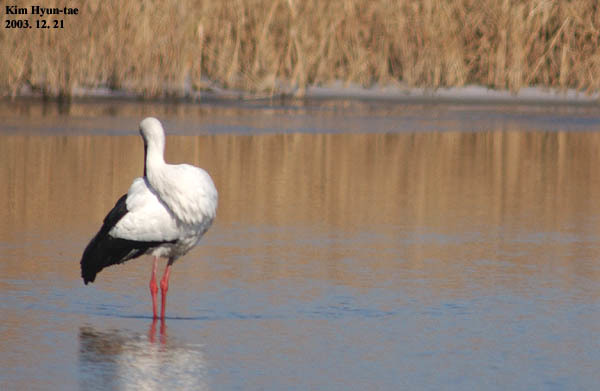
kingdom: Animalia
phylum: Chordata
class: Aves
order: Ciconiiformes
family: Ciconiidae
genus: Ciconia
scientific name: Ciconia boyciana
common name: Oriental stork
